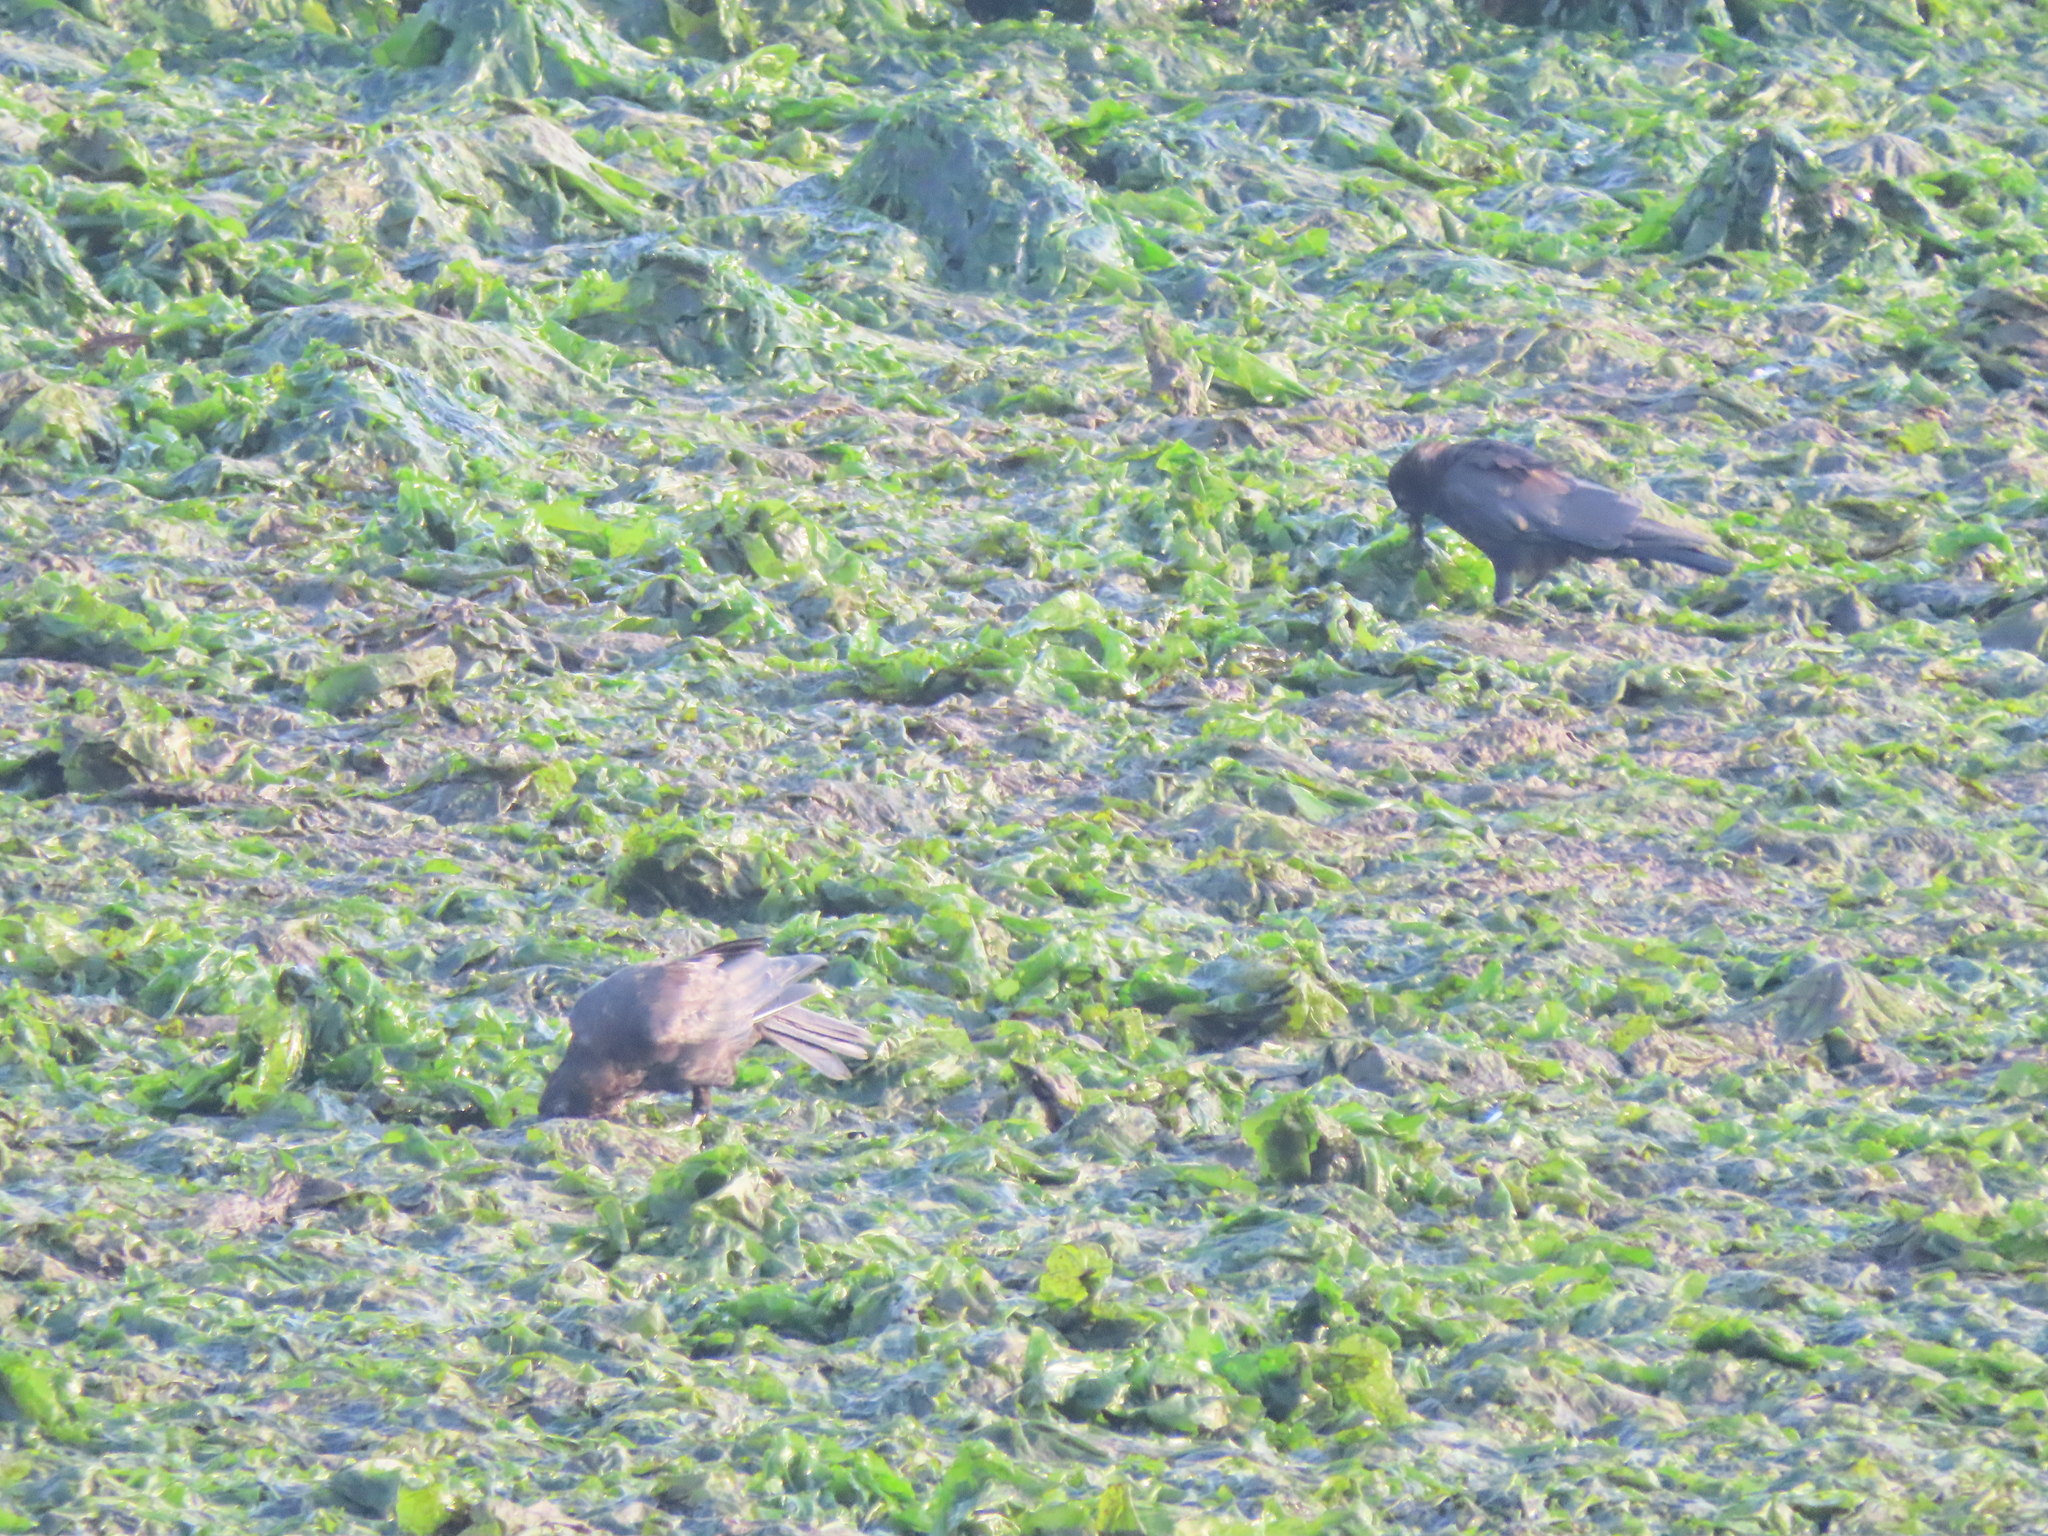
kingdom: Animalia
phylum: Chordata
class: Aves
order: Passeriformes
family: Corvidae
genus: Corvus
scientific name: Corvus brachyrhynchos
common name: American crow
